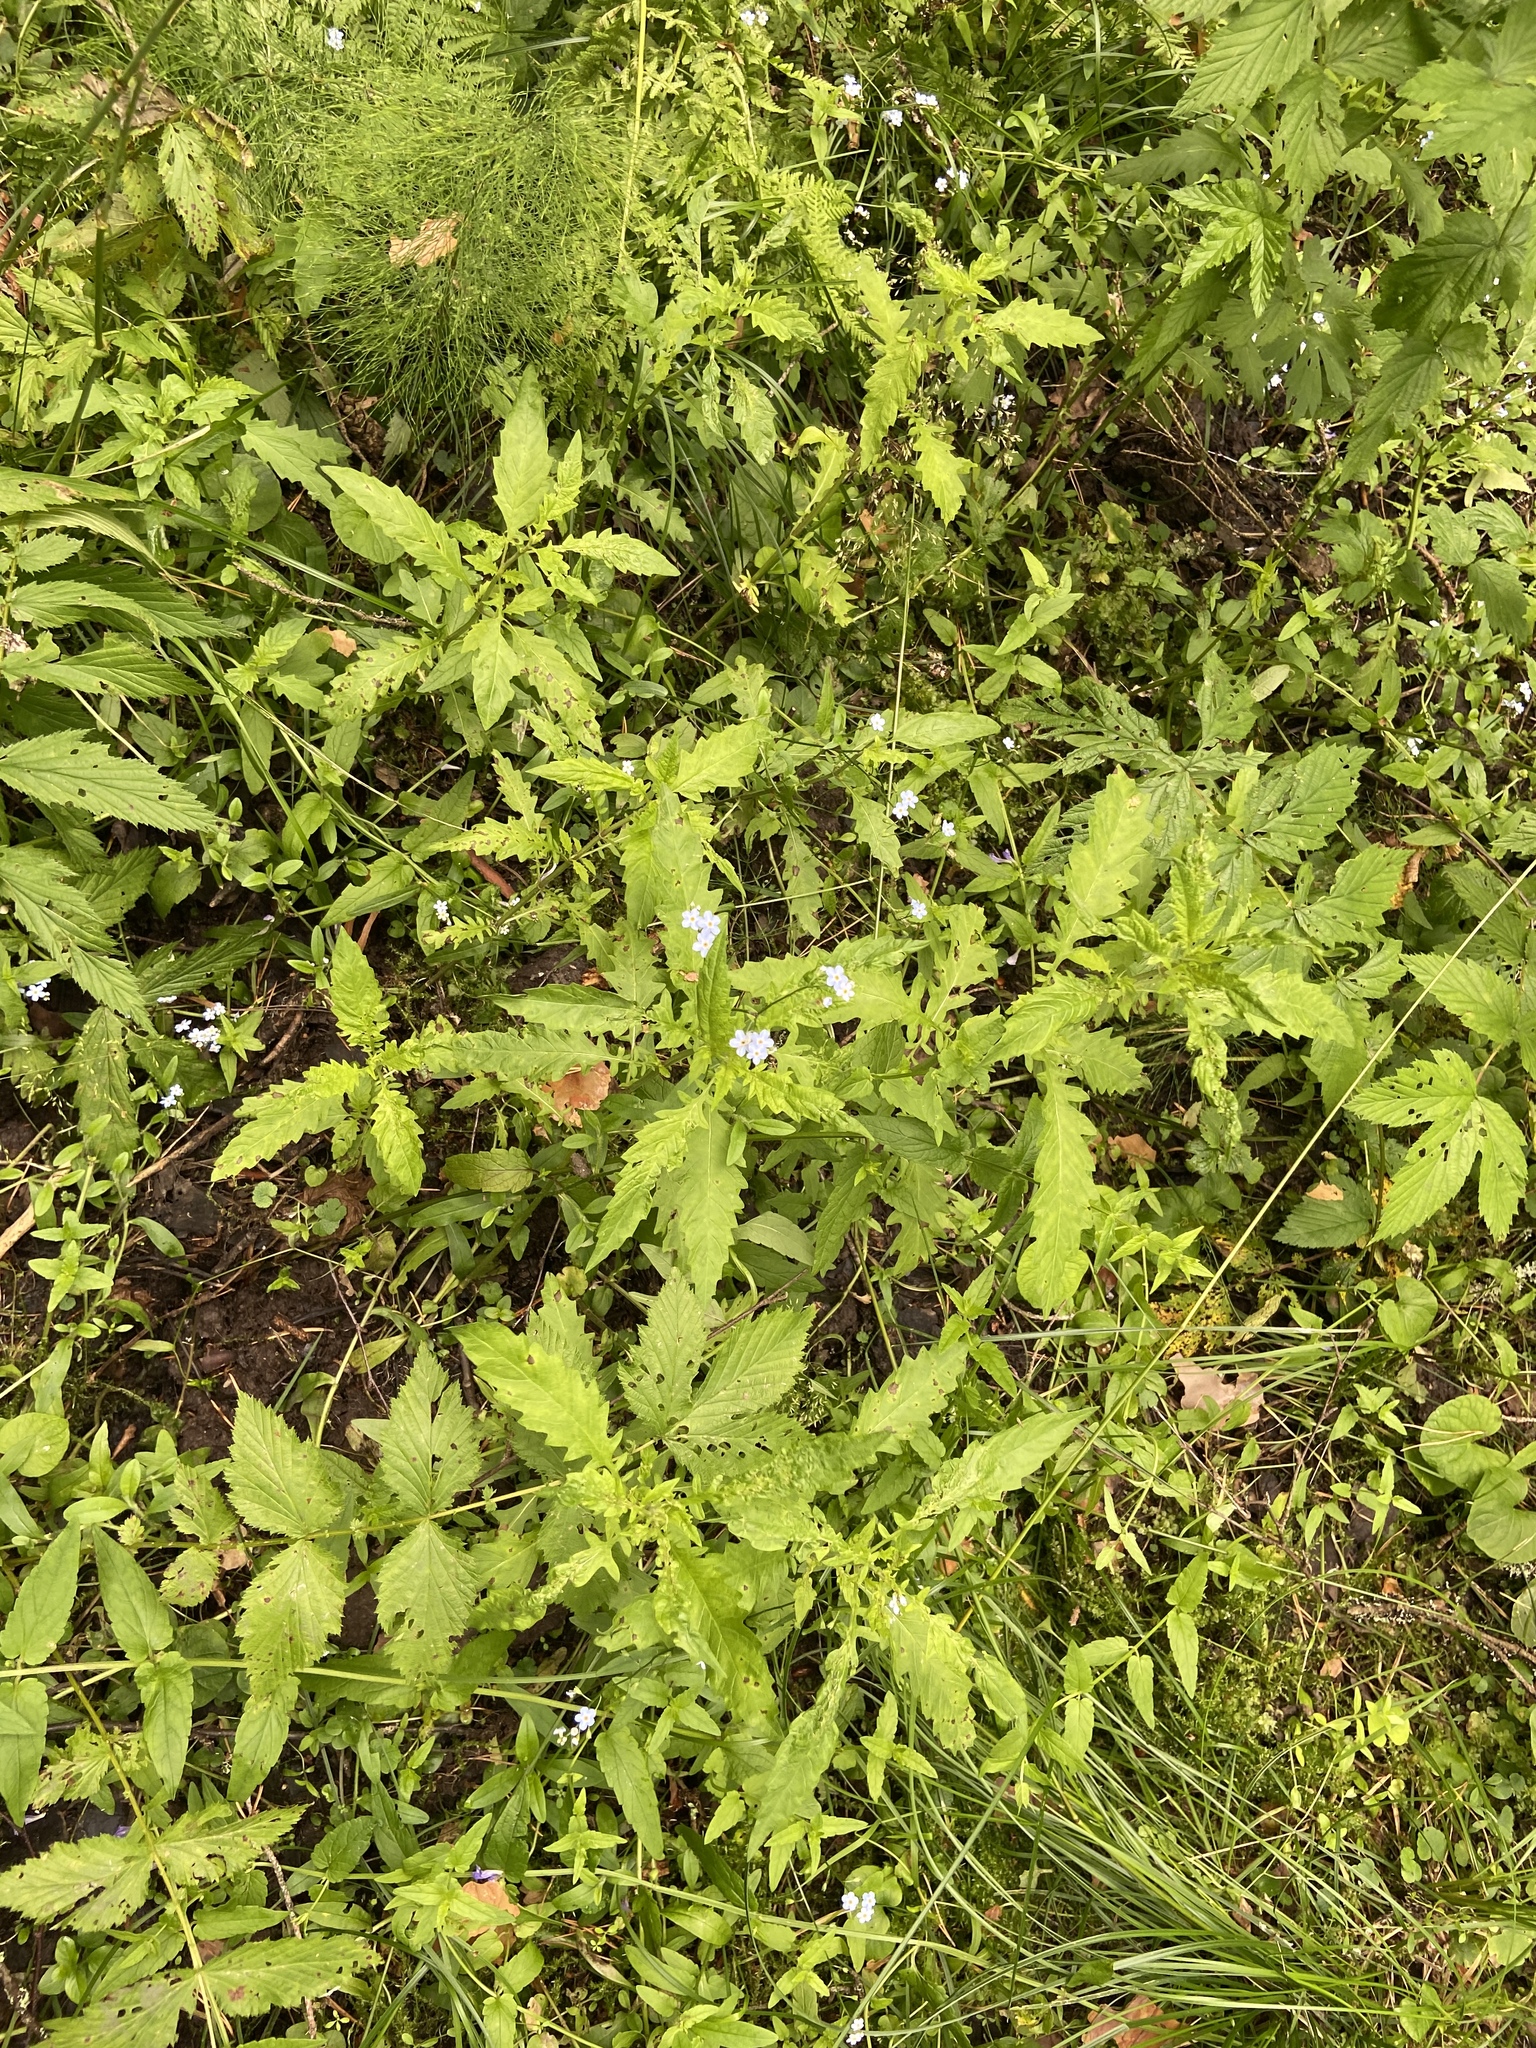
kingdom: Plantae
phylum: Tracheophyta
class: Magnoliopsida
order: Lamiales
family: Lamiaceae
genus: Lycopus
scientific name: Lycopus europaeus
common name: European bugleweed
